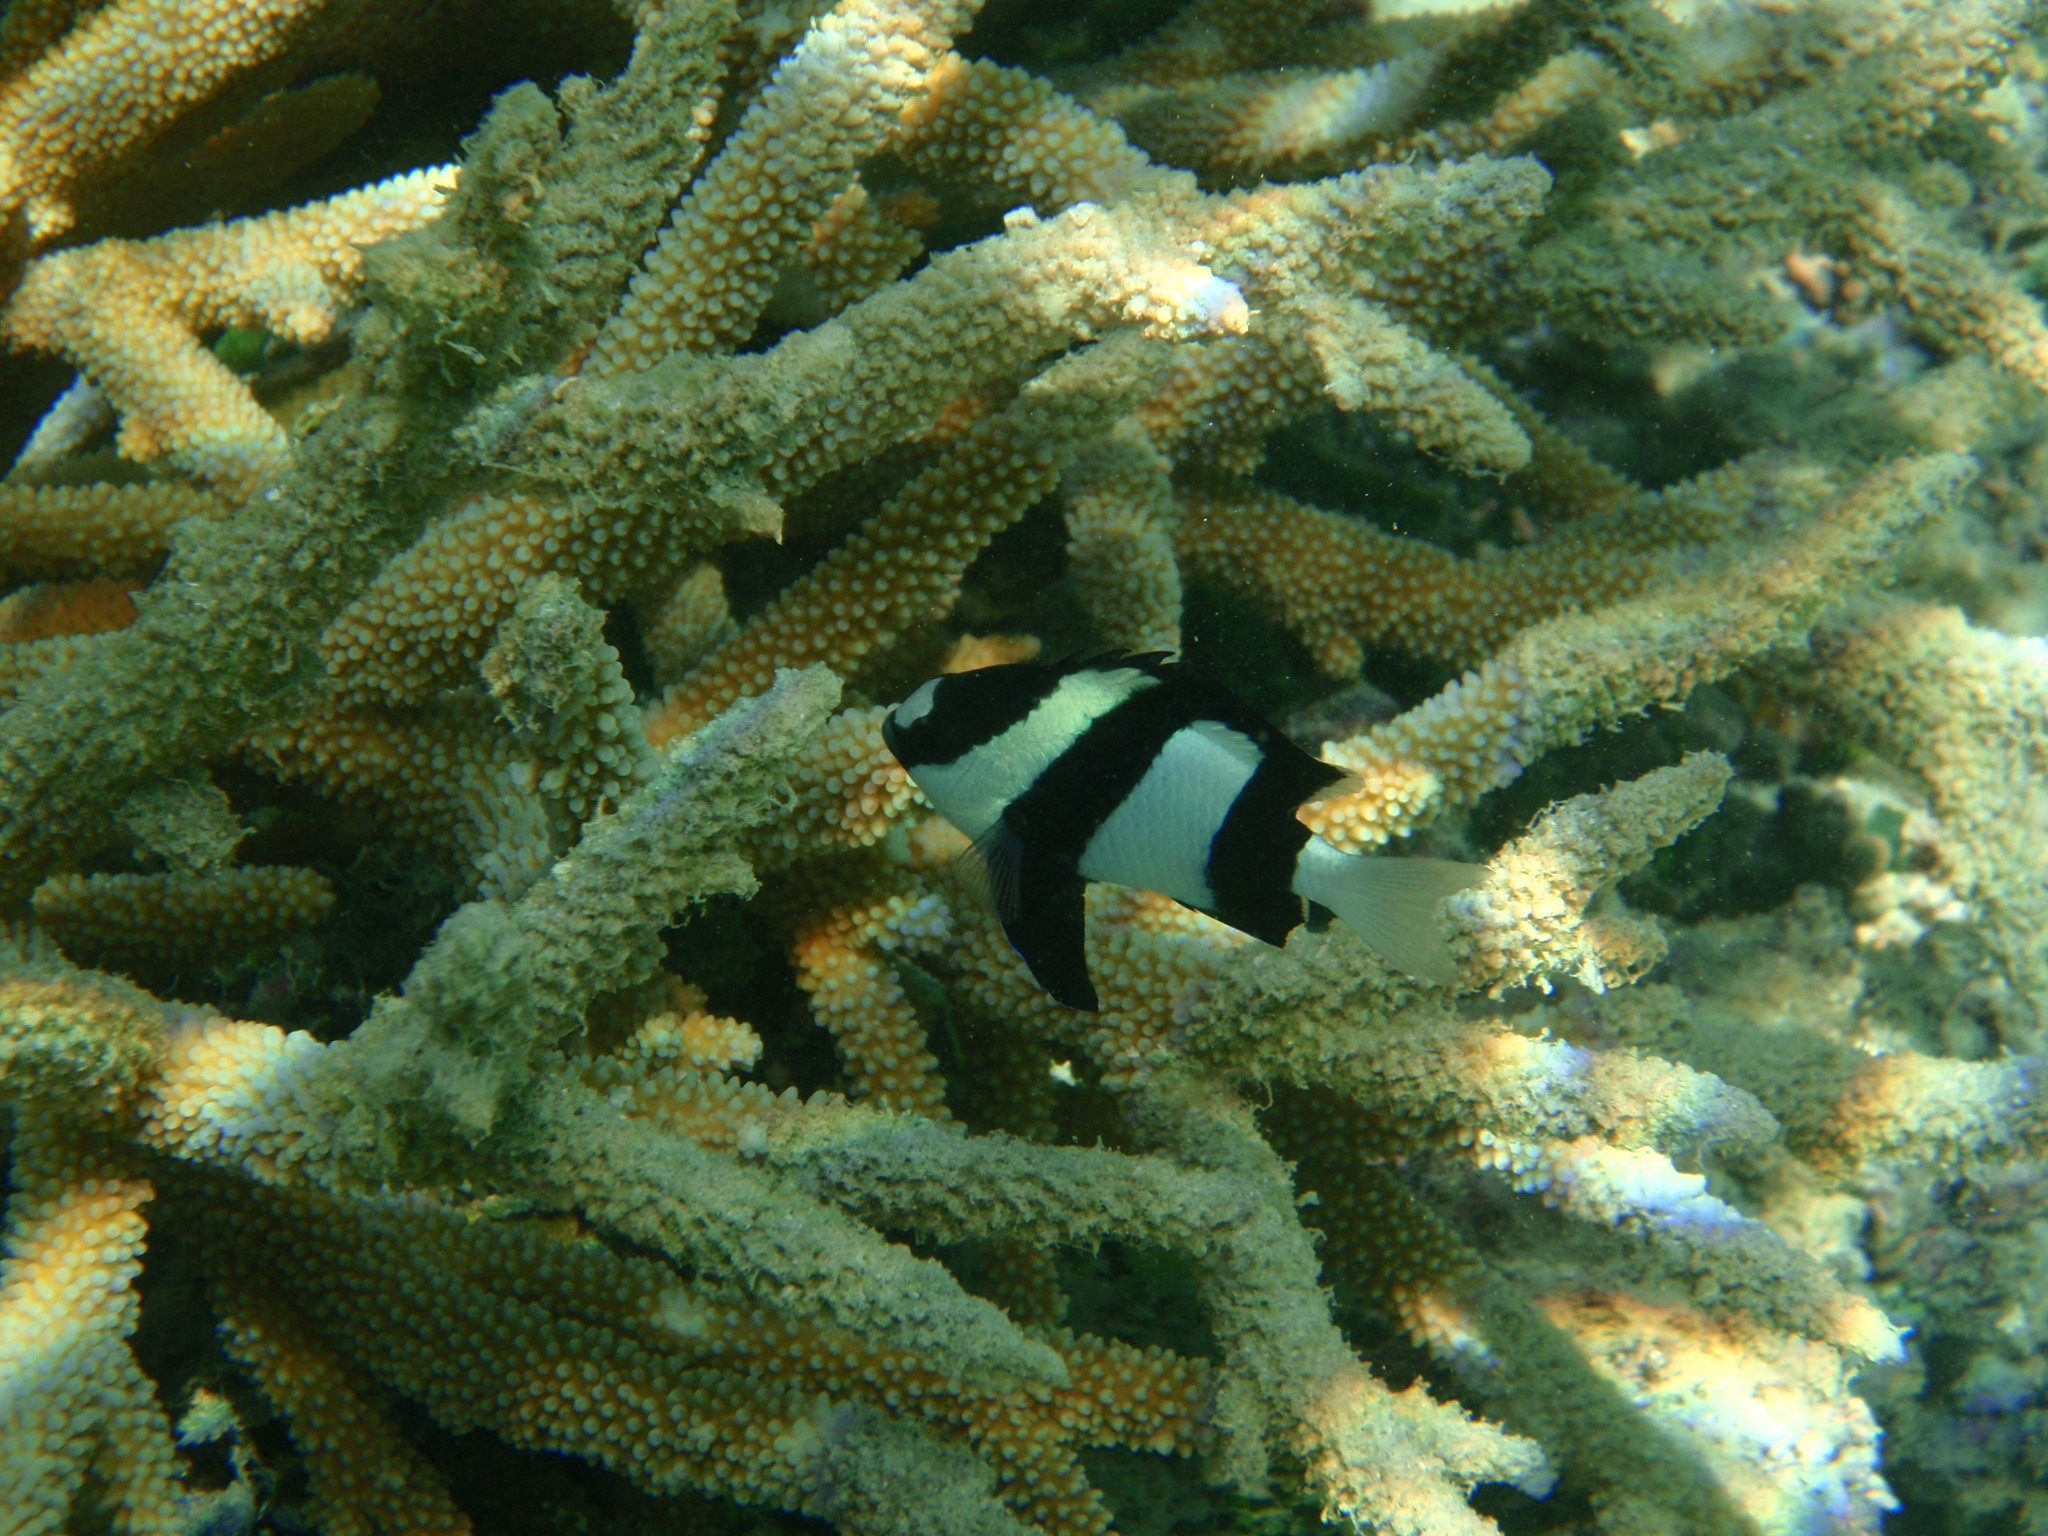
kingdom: Animalia
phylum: Chordata
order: Perciformes
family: Pomacentridae
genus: Dascyllus
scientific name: Dascyllus aruanus
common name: Humbug dascyllus
